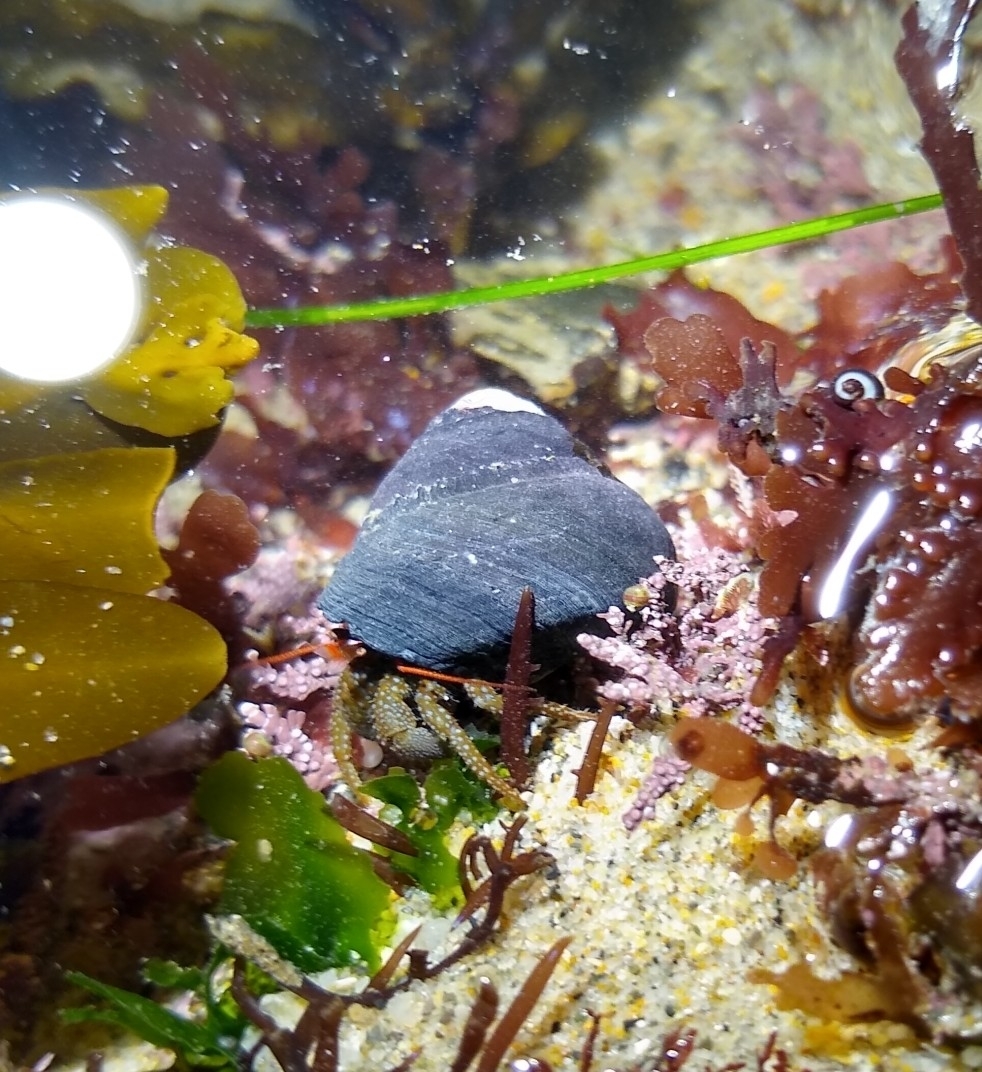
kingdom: Animalia
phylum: Arthropoda
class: Malacostraca
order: Decapoda
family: Paguridae
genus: Pagurus
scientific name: Pagurus granosimanus
